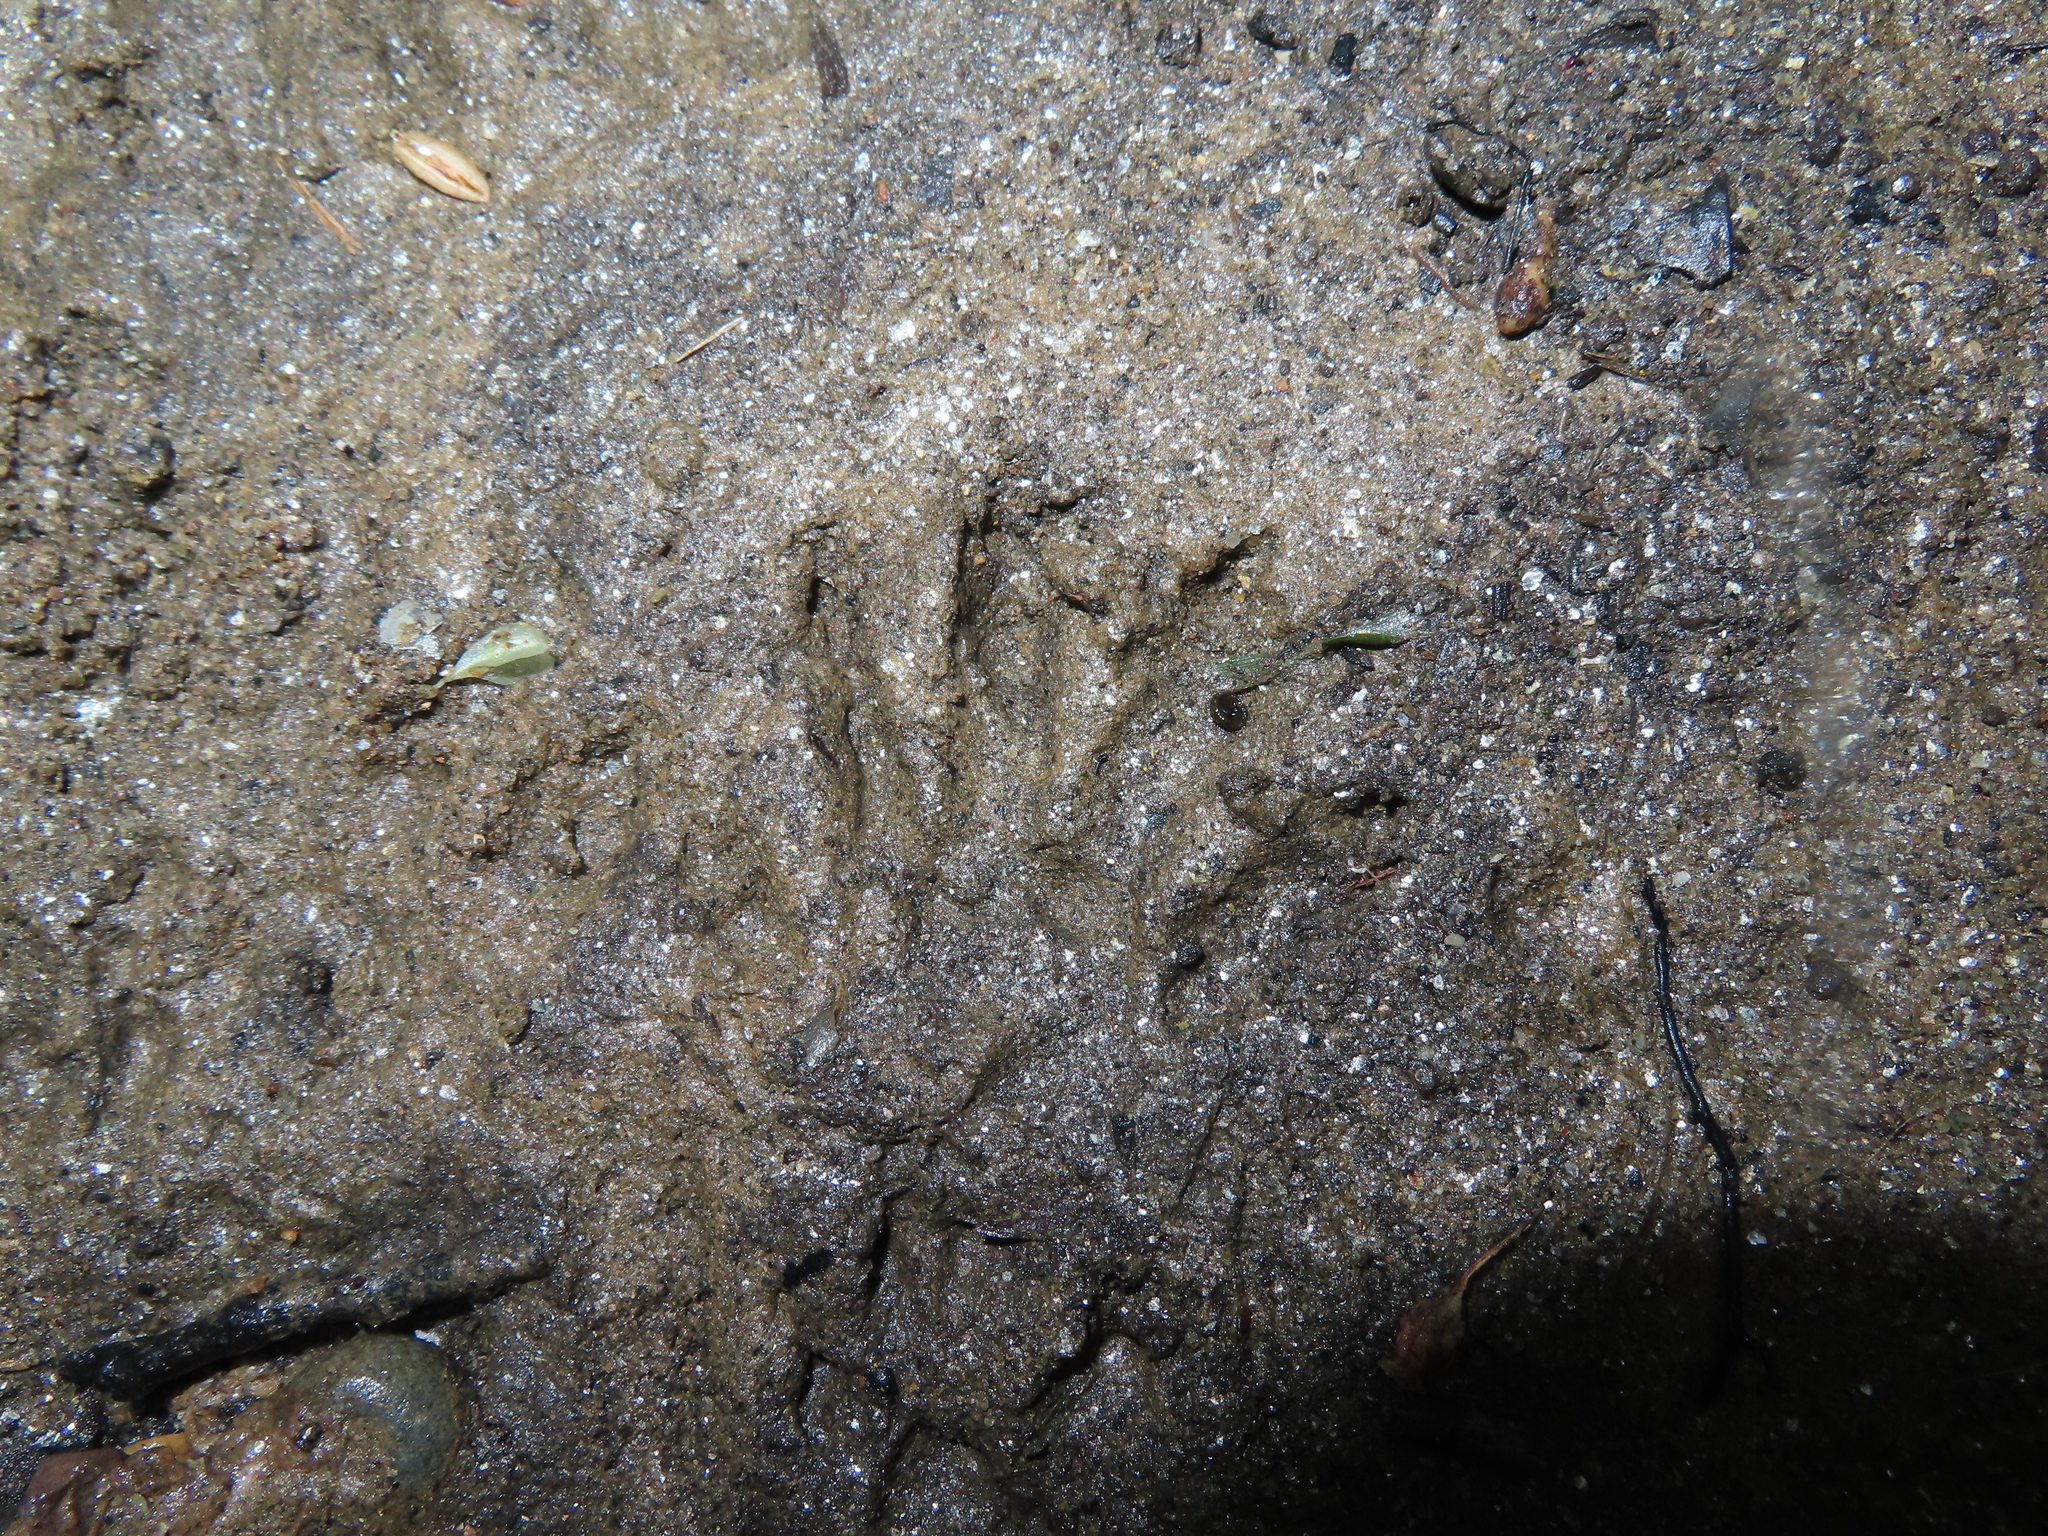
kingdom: Animalia
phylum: Chordata
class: Mammalia
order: Carnivora
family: Procyonidae
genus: Procyon
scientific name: Procyon lotor
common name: Raccoon
